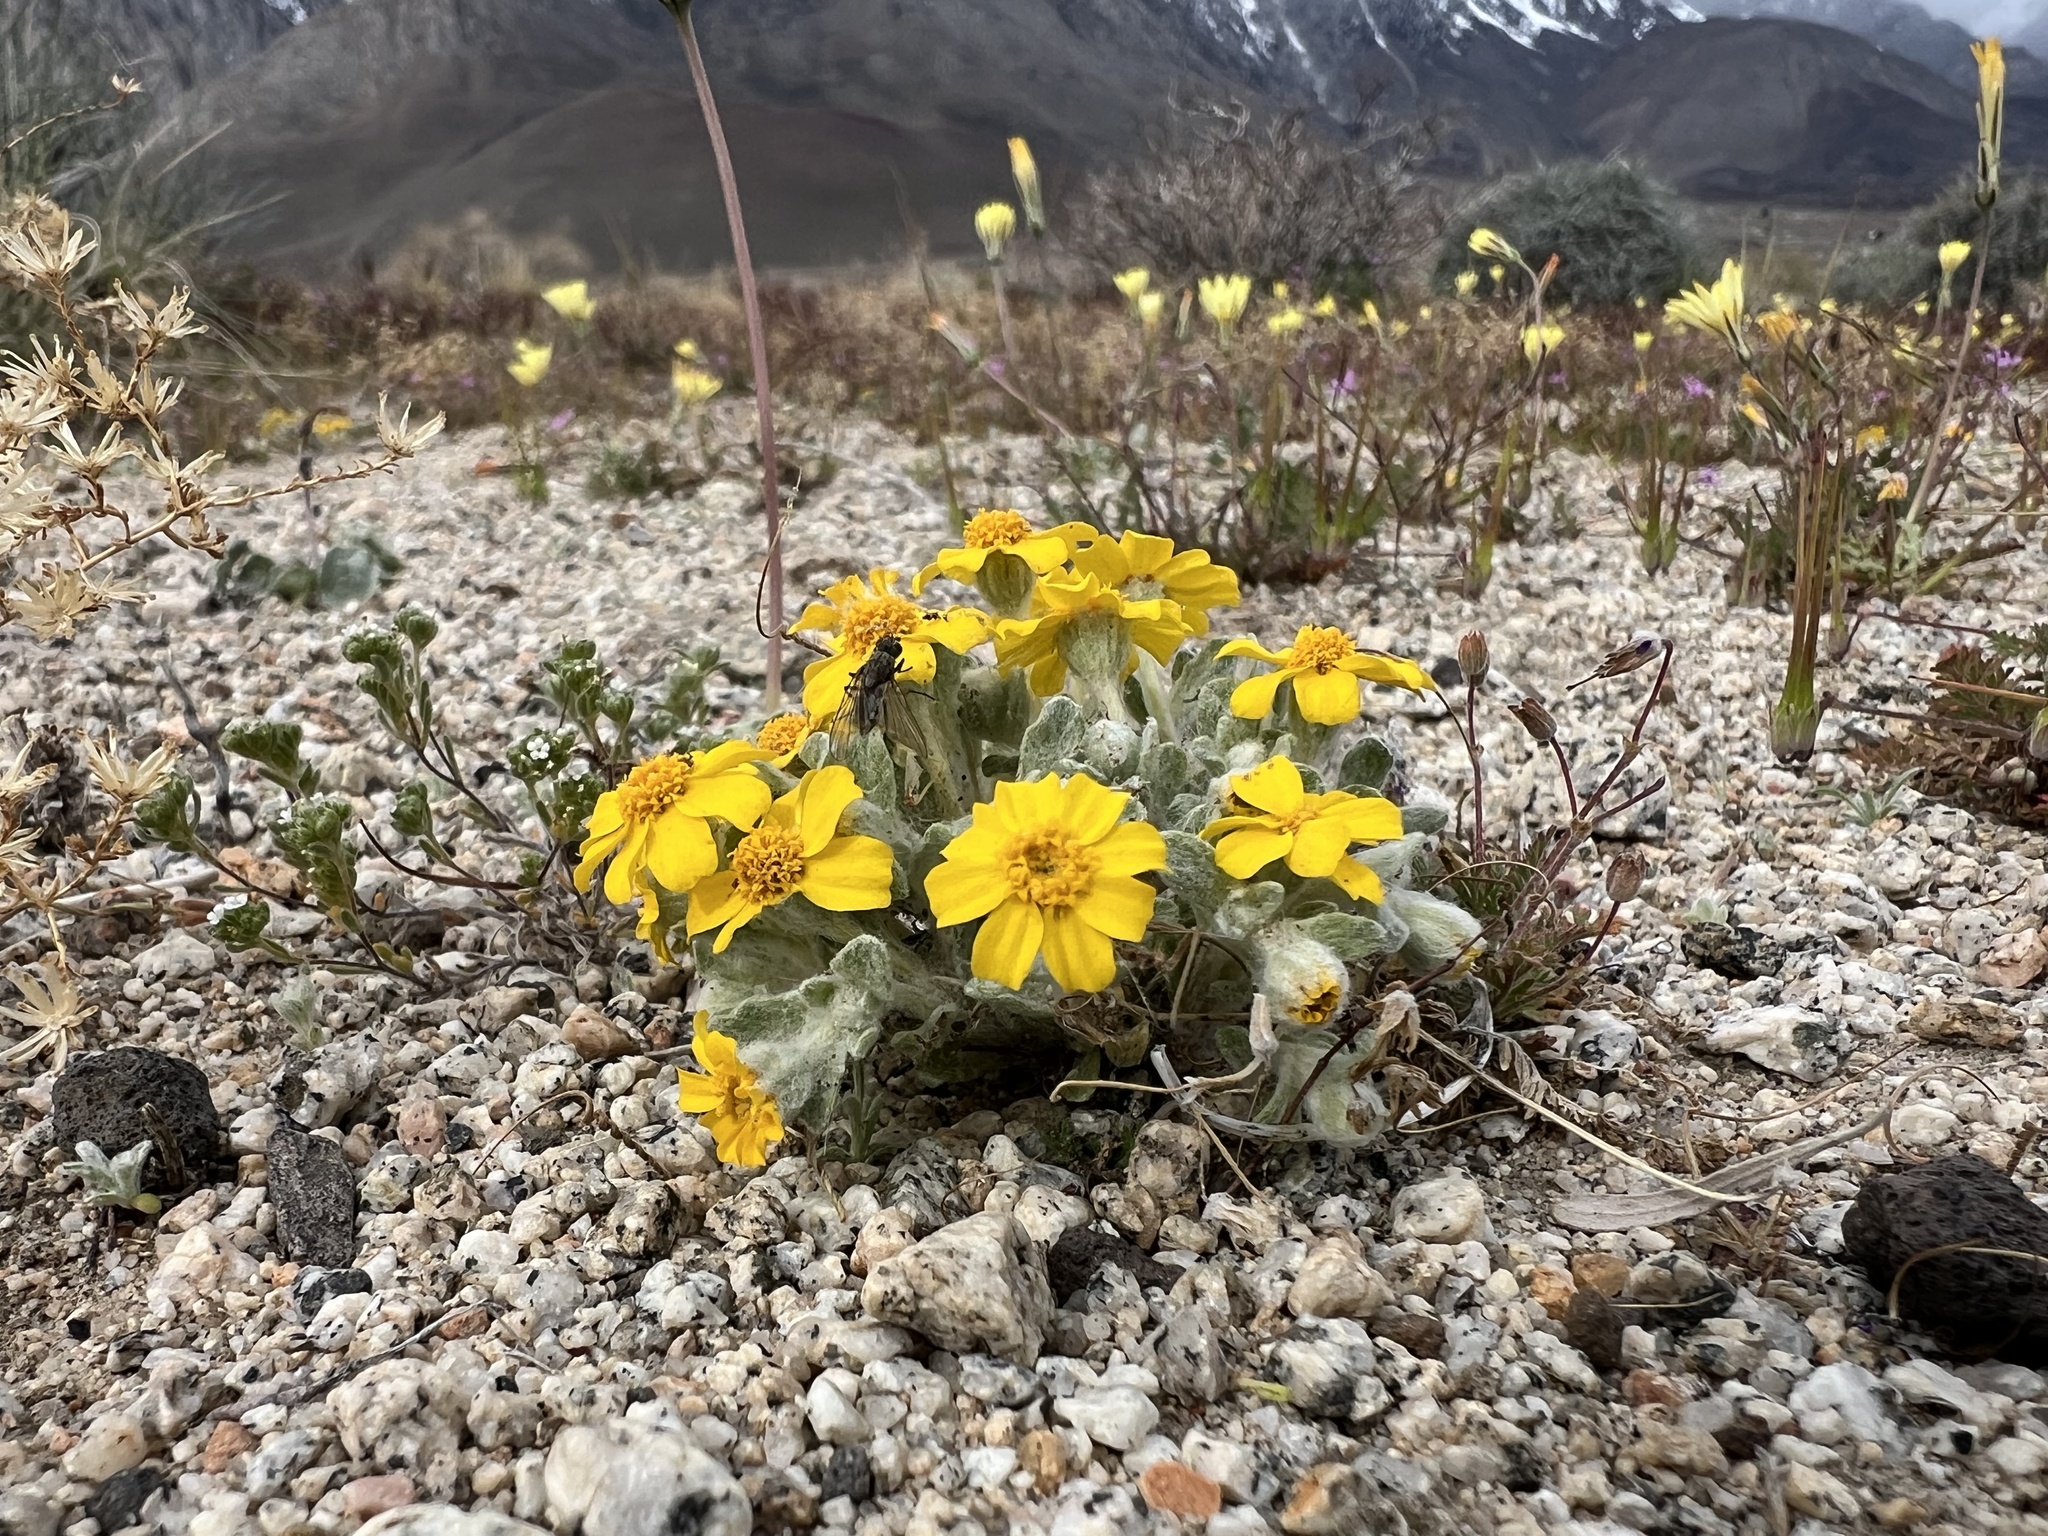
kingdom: Plantae
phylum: Tracheophyta
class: Magnoliopsida
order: Asterales
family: Asteraceae
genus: Eriophyllum
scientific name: Eriophyllum wallacei
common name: Wallace's woolly daisy
